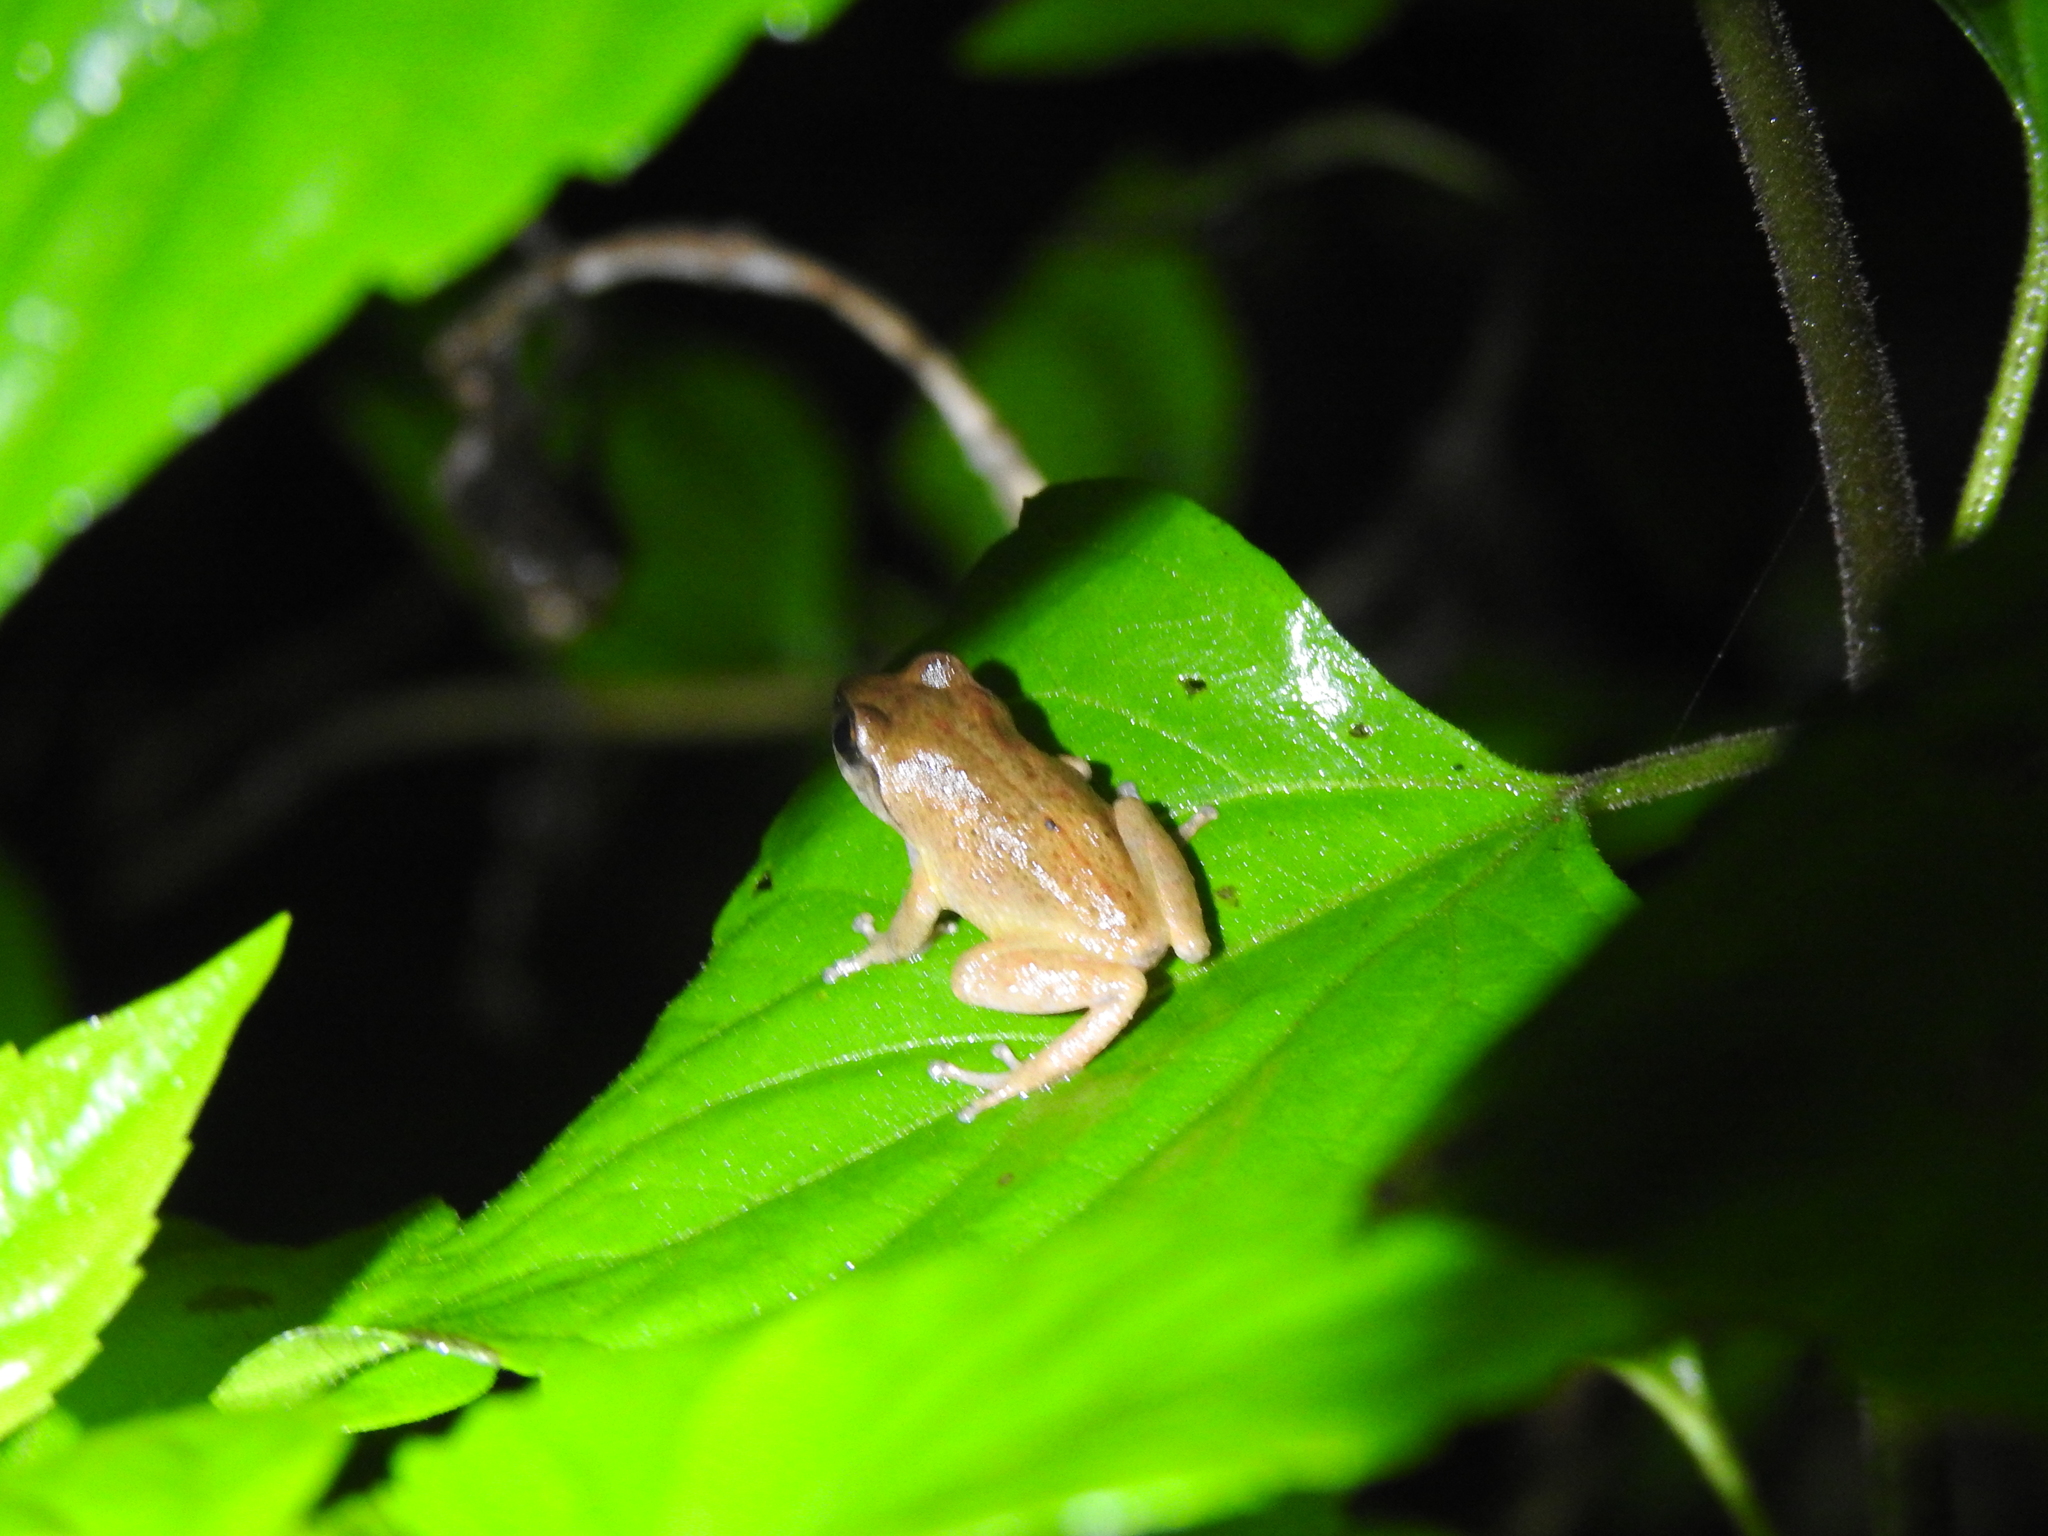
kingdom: Animalia
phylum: Chordata
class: Amphibia
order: Anura
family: Rhacophoridae
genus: Raorchestes
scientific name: Raorchestes dubois
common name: Koadaikanal bush frog
